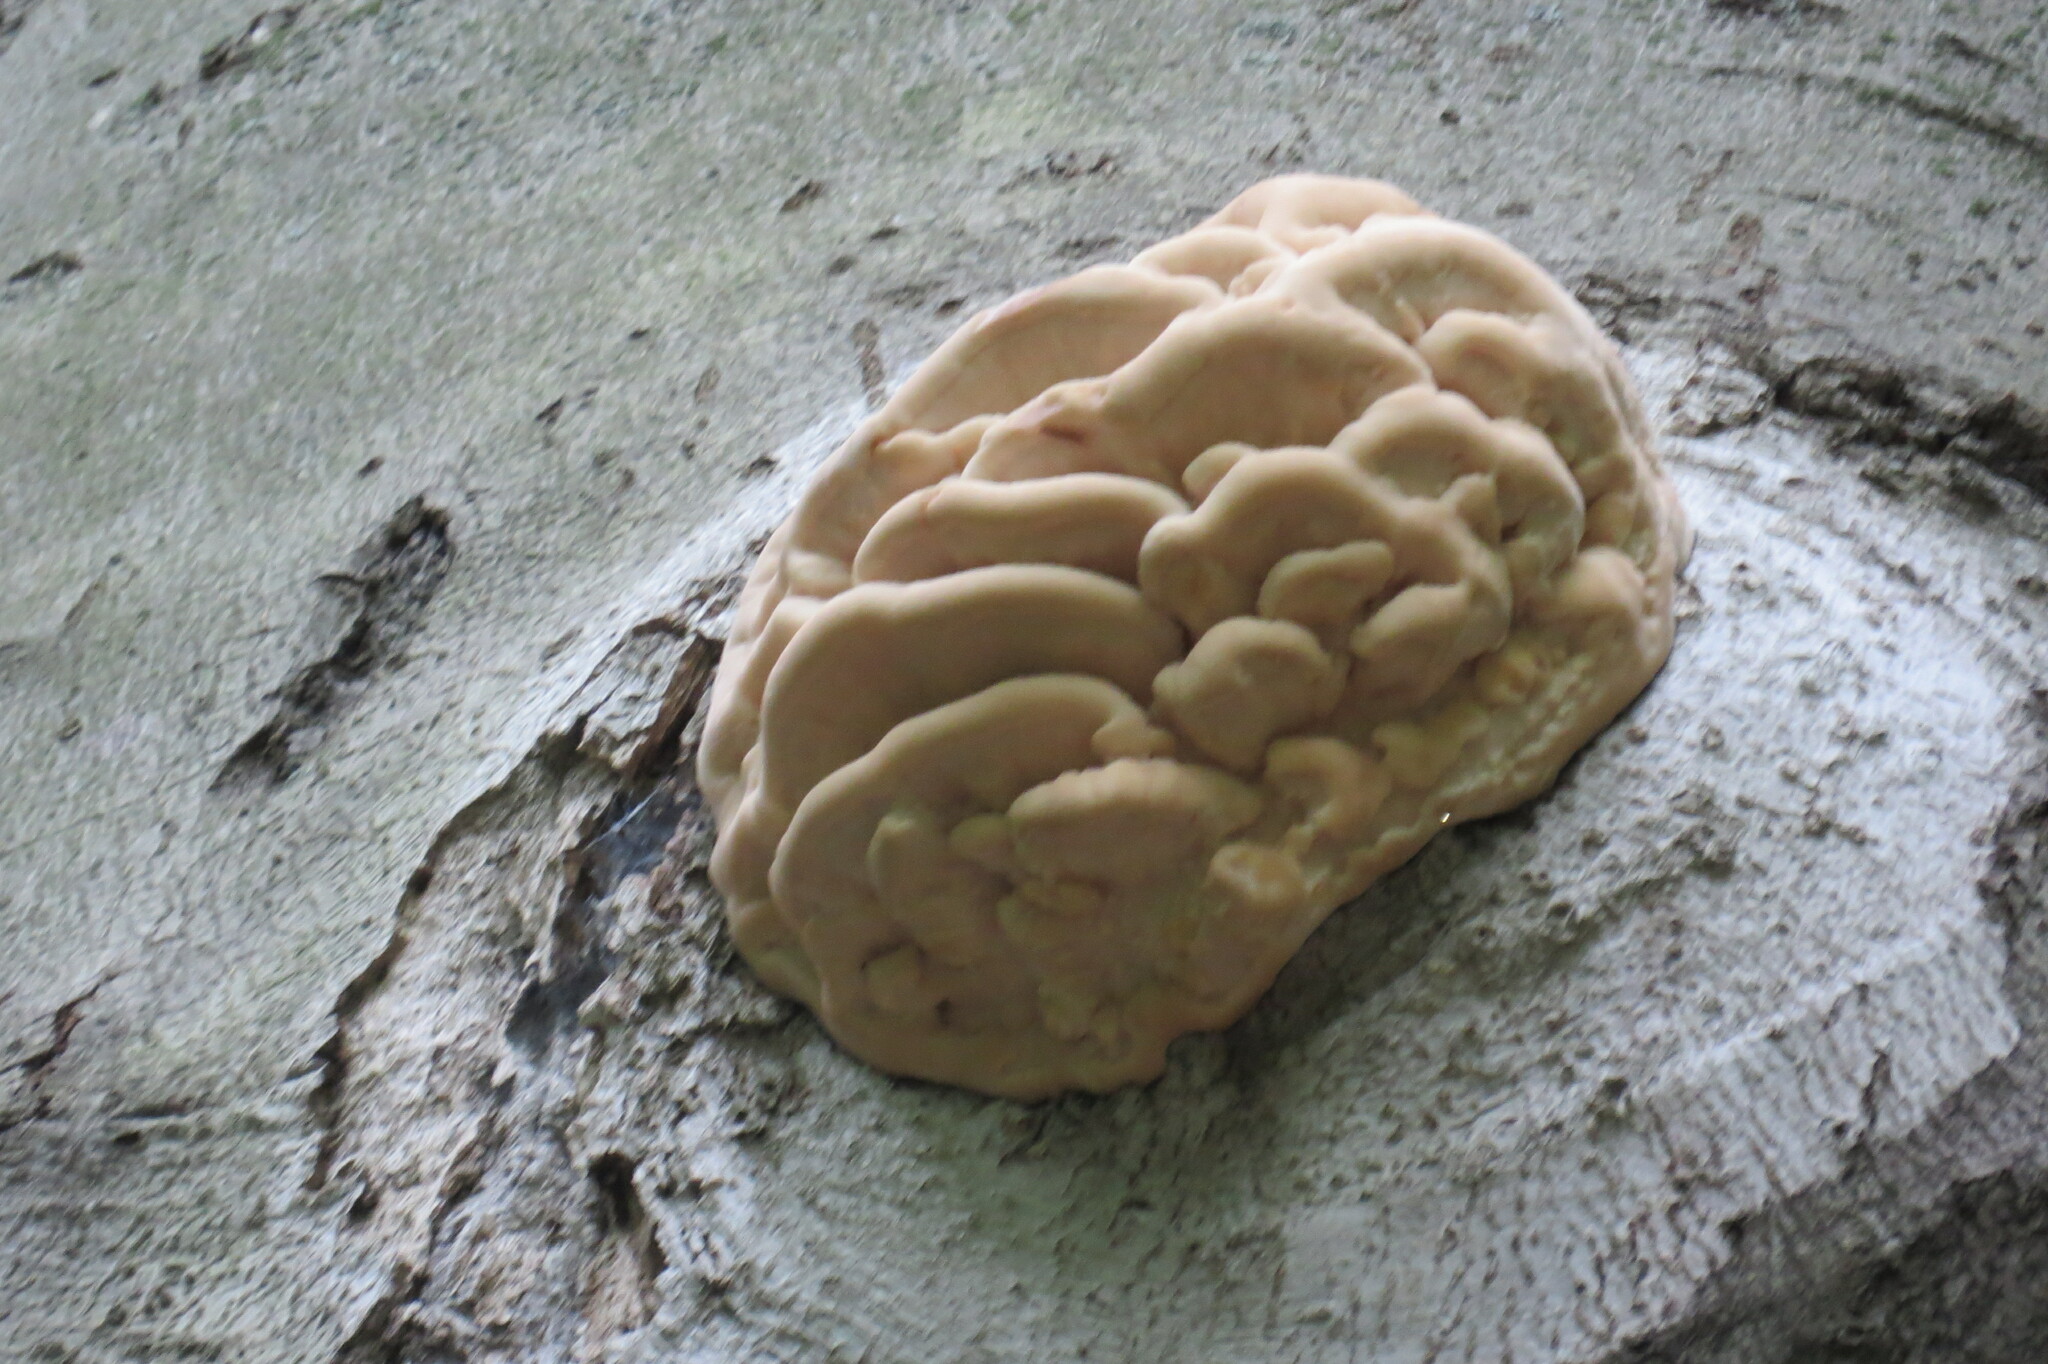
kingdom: Fungi
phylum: Basidiomycota
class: Agaricomycetes
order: Polyporales
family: Meruliaceae
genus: Climacodon
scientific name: Climacodon septentrionalis
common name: Northern tooth
